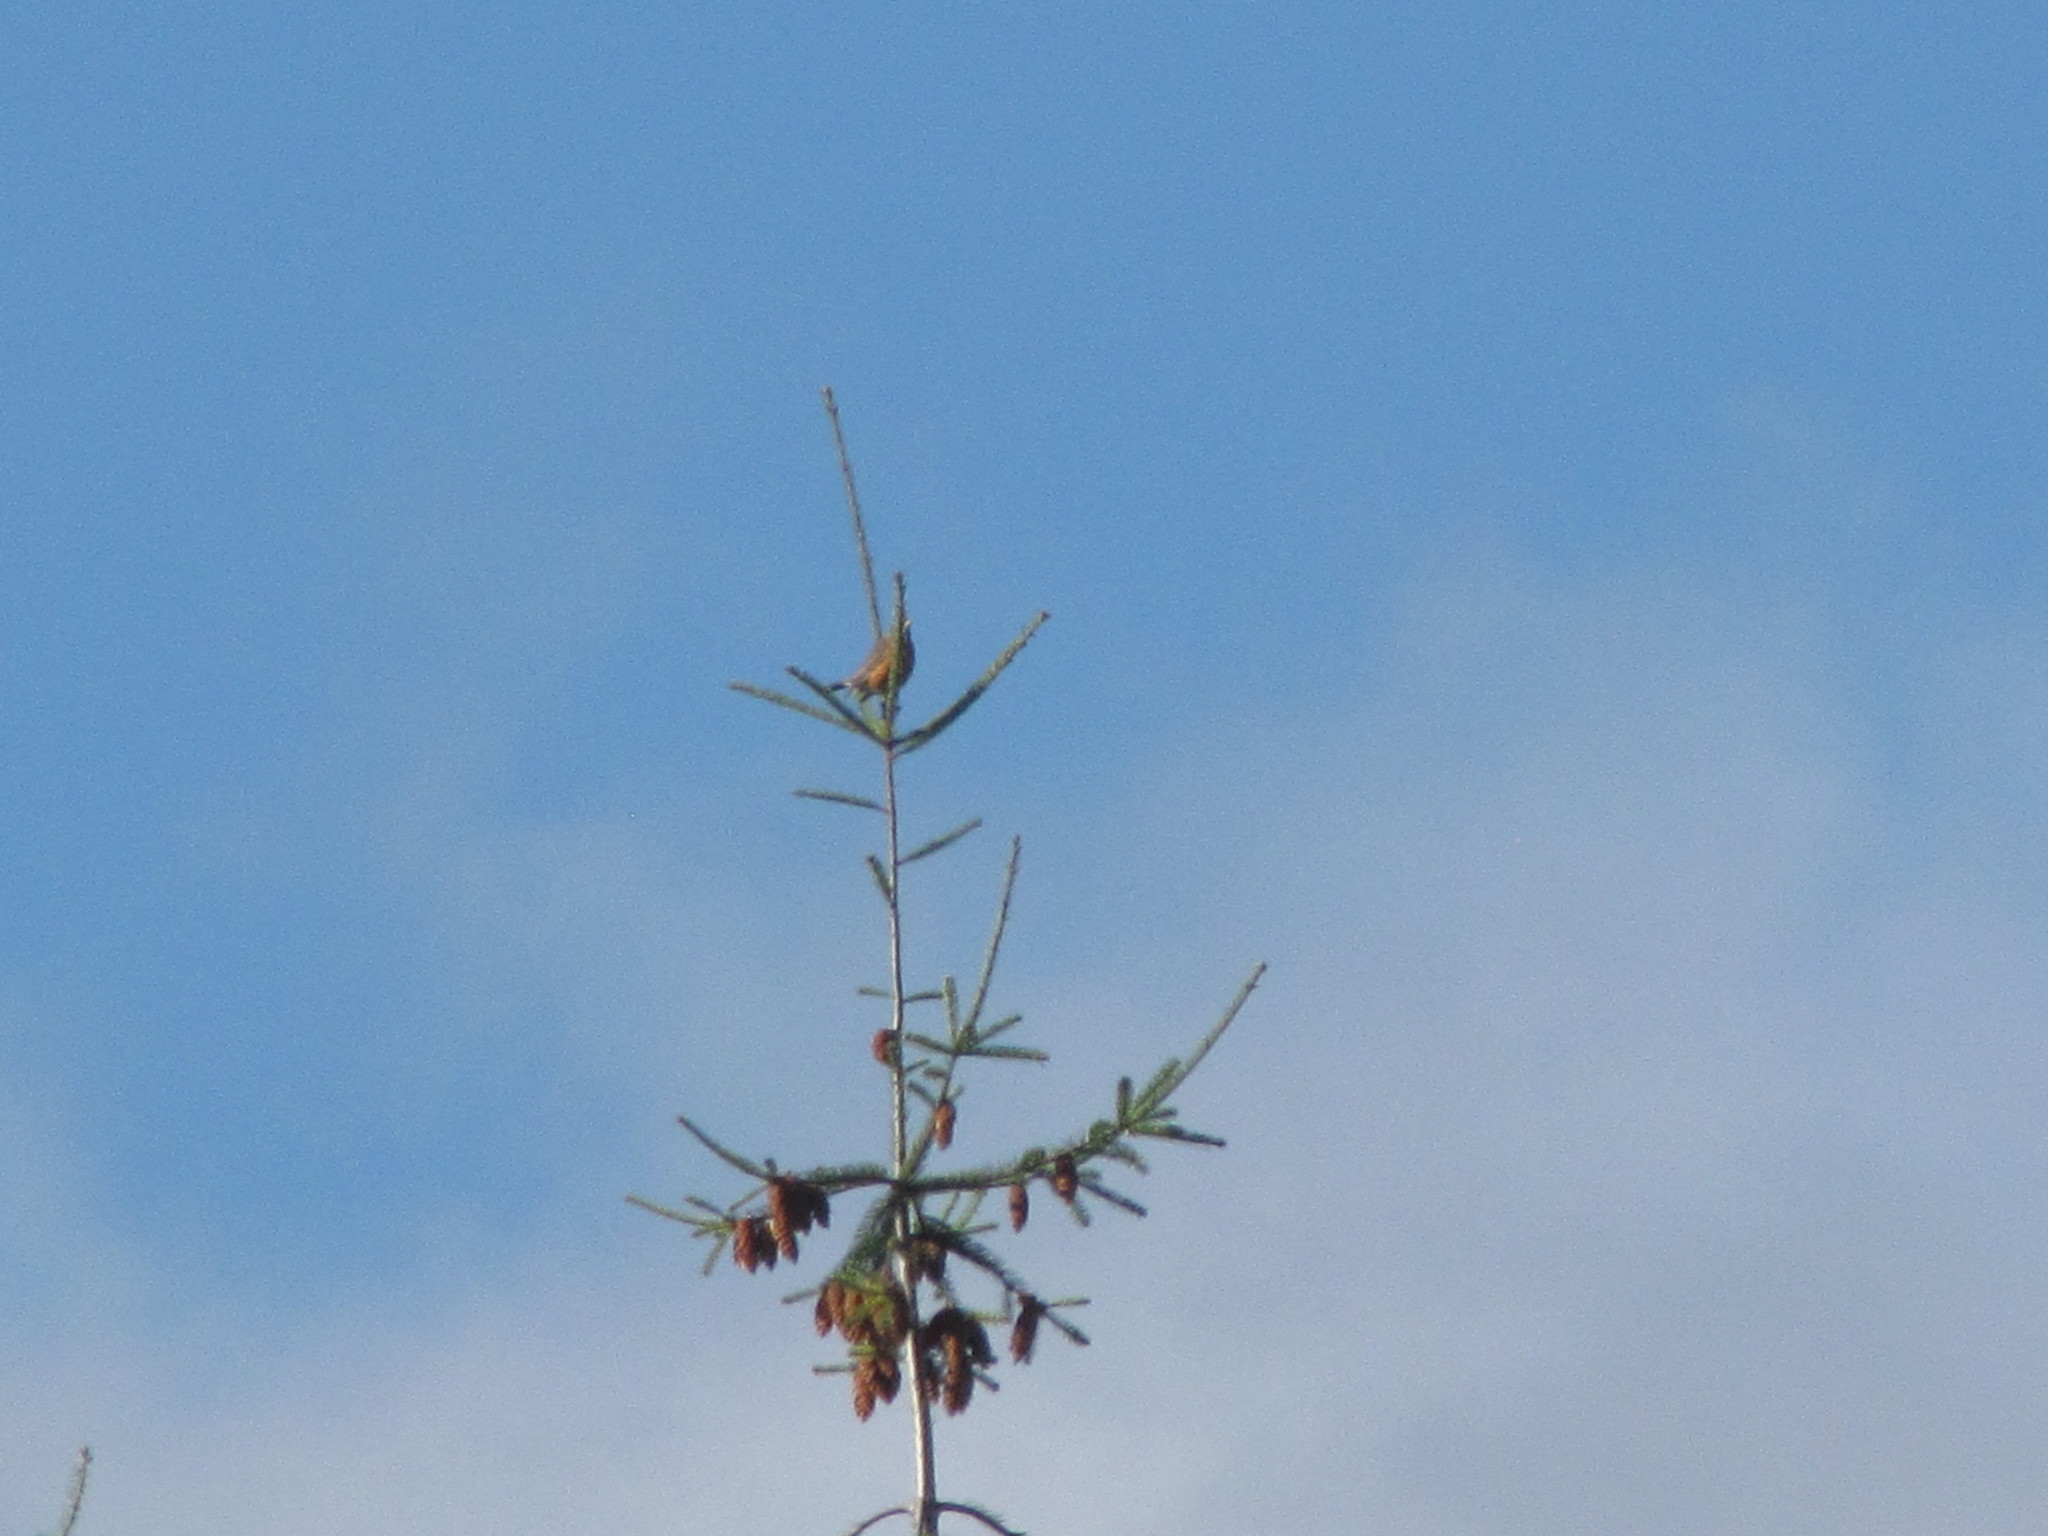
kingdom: Animalia
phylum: Chordata
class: Aves
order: Passeriformes
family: Turdidae
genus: Turdus
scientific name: Turdus migratorius
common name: American robin
